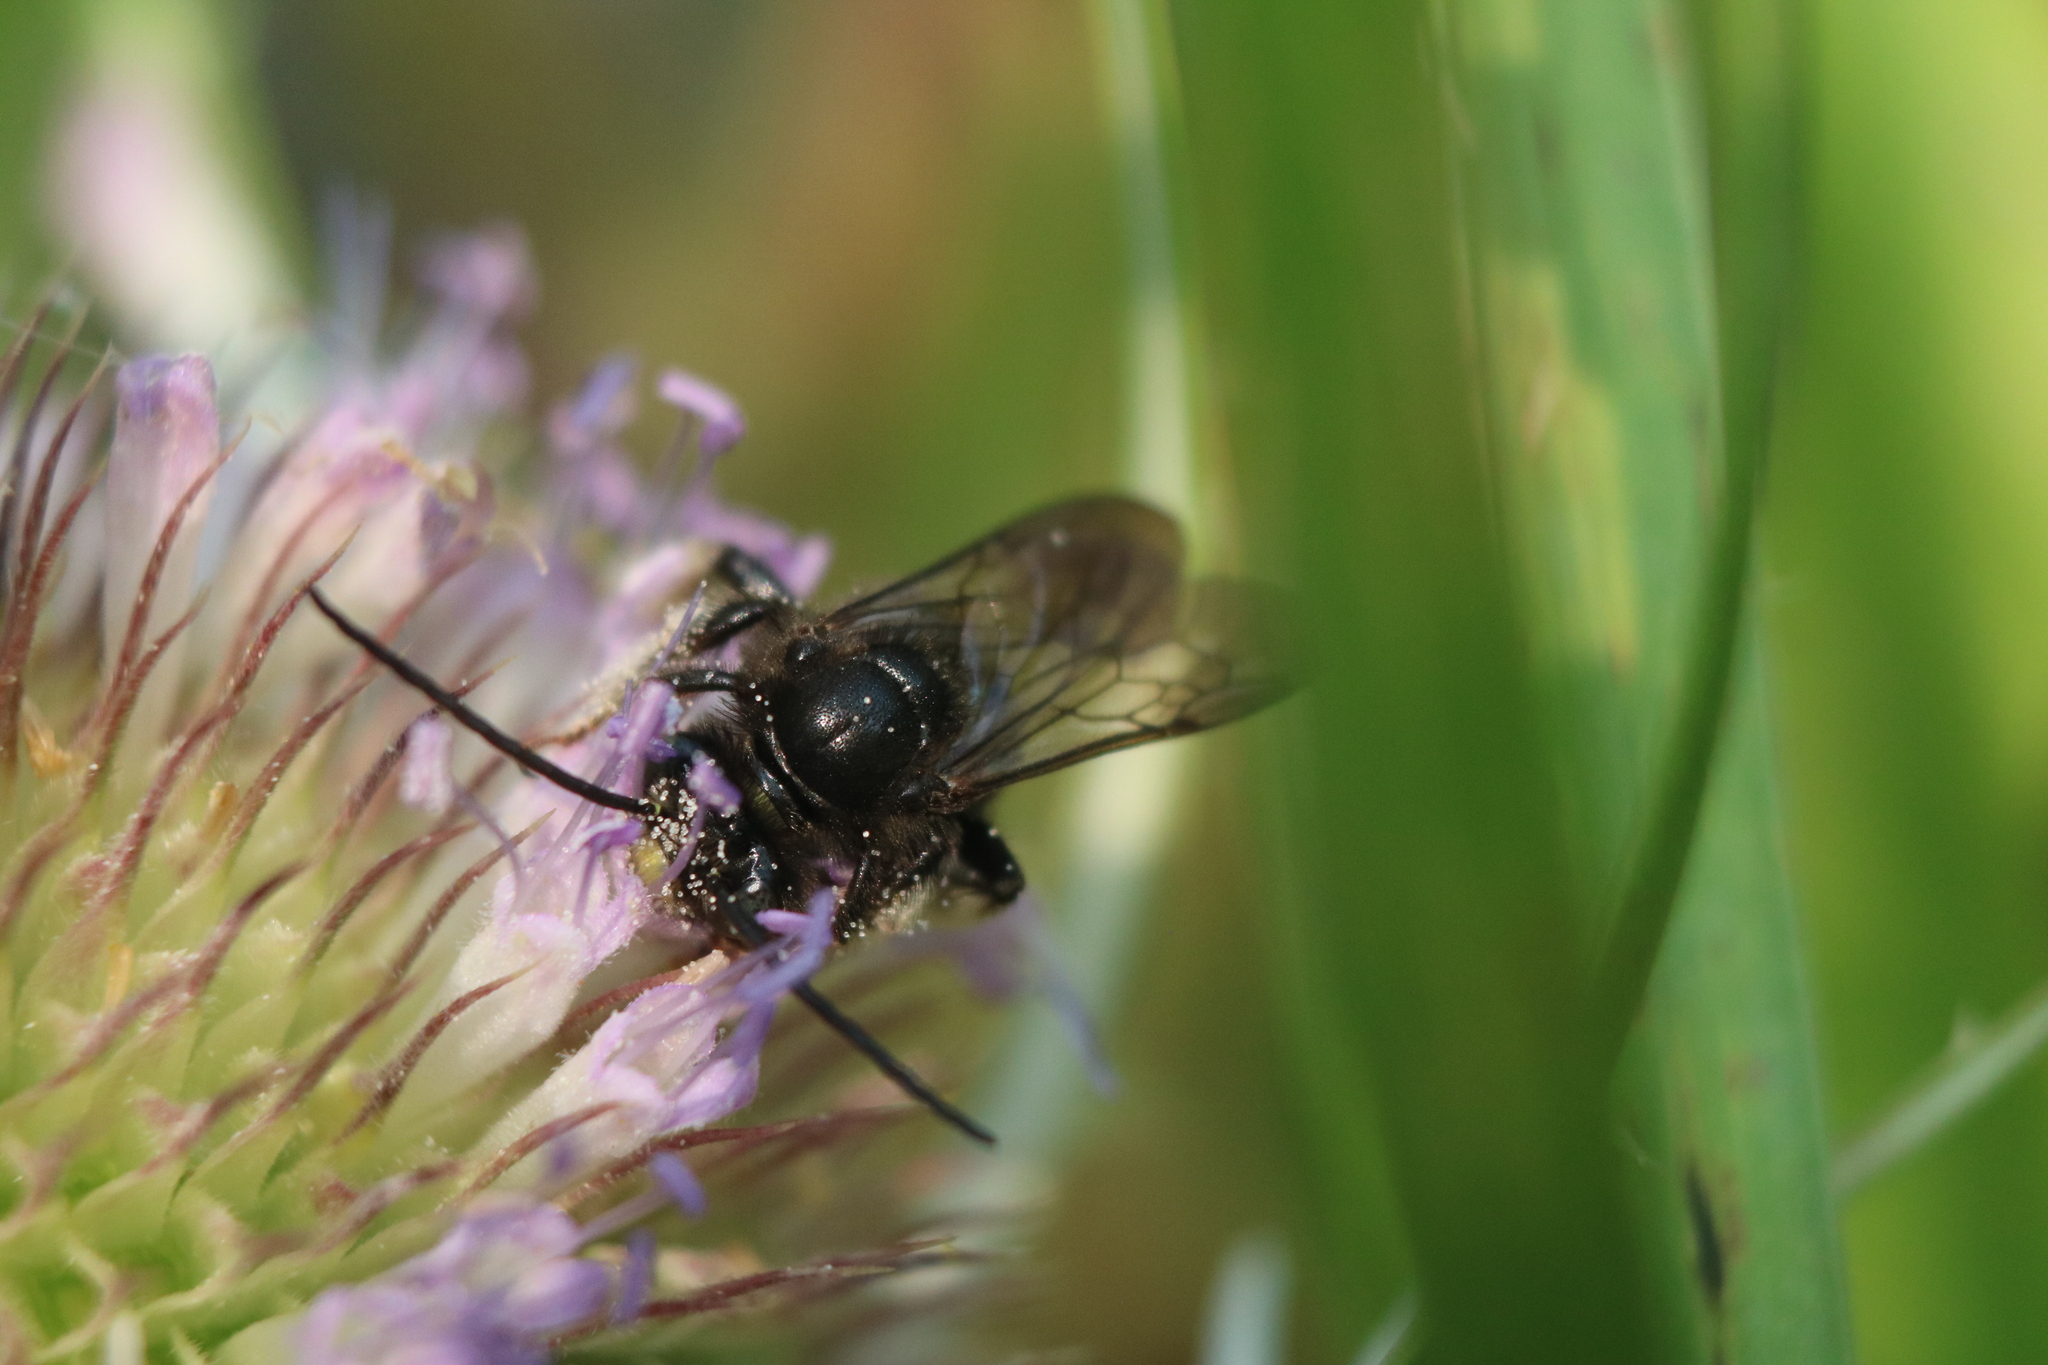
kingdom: Animalia
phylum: Arthropoda
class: Insecta
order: Hymenoptera
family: Apidae
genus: Melissodes
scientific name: Melissodes bimaculatus
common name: Two-spotted long-horned bee
